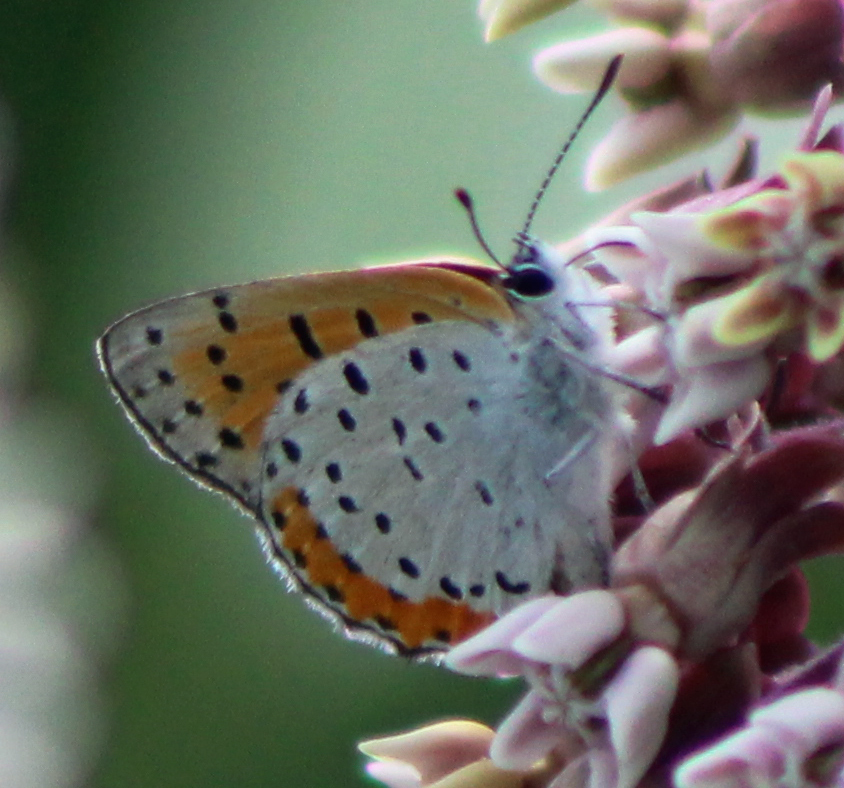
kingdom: Animalia
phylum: Arthropoda
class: Insecta
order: Lepidoptera
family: Lycaenidae
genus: Tharsalea
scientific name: Tharsalea hyllus
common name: Bronze copper
